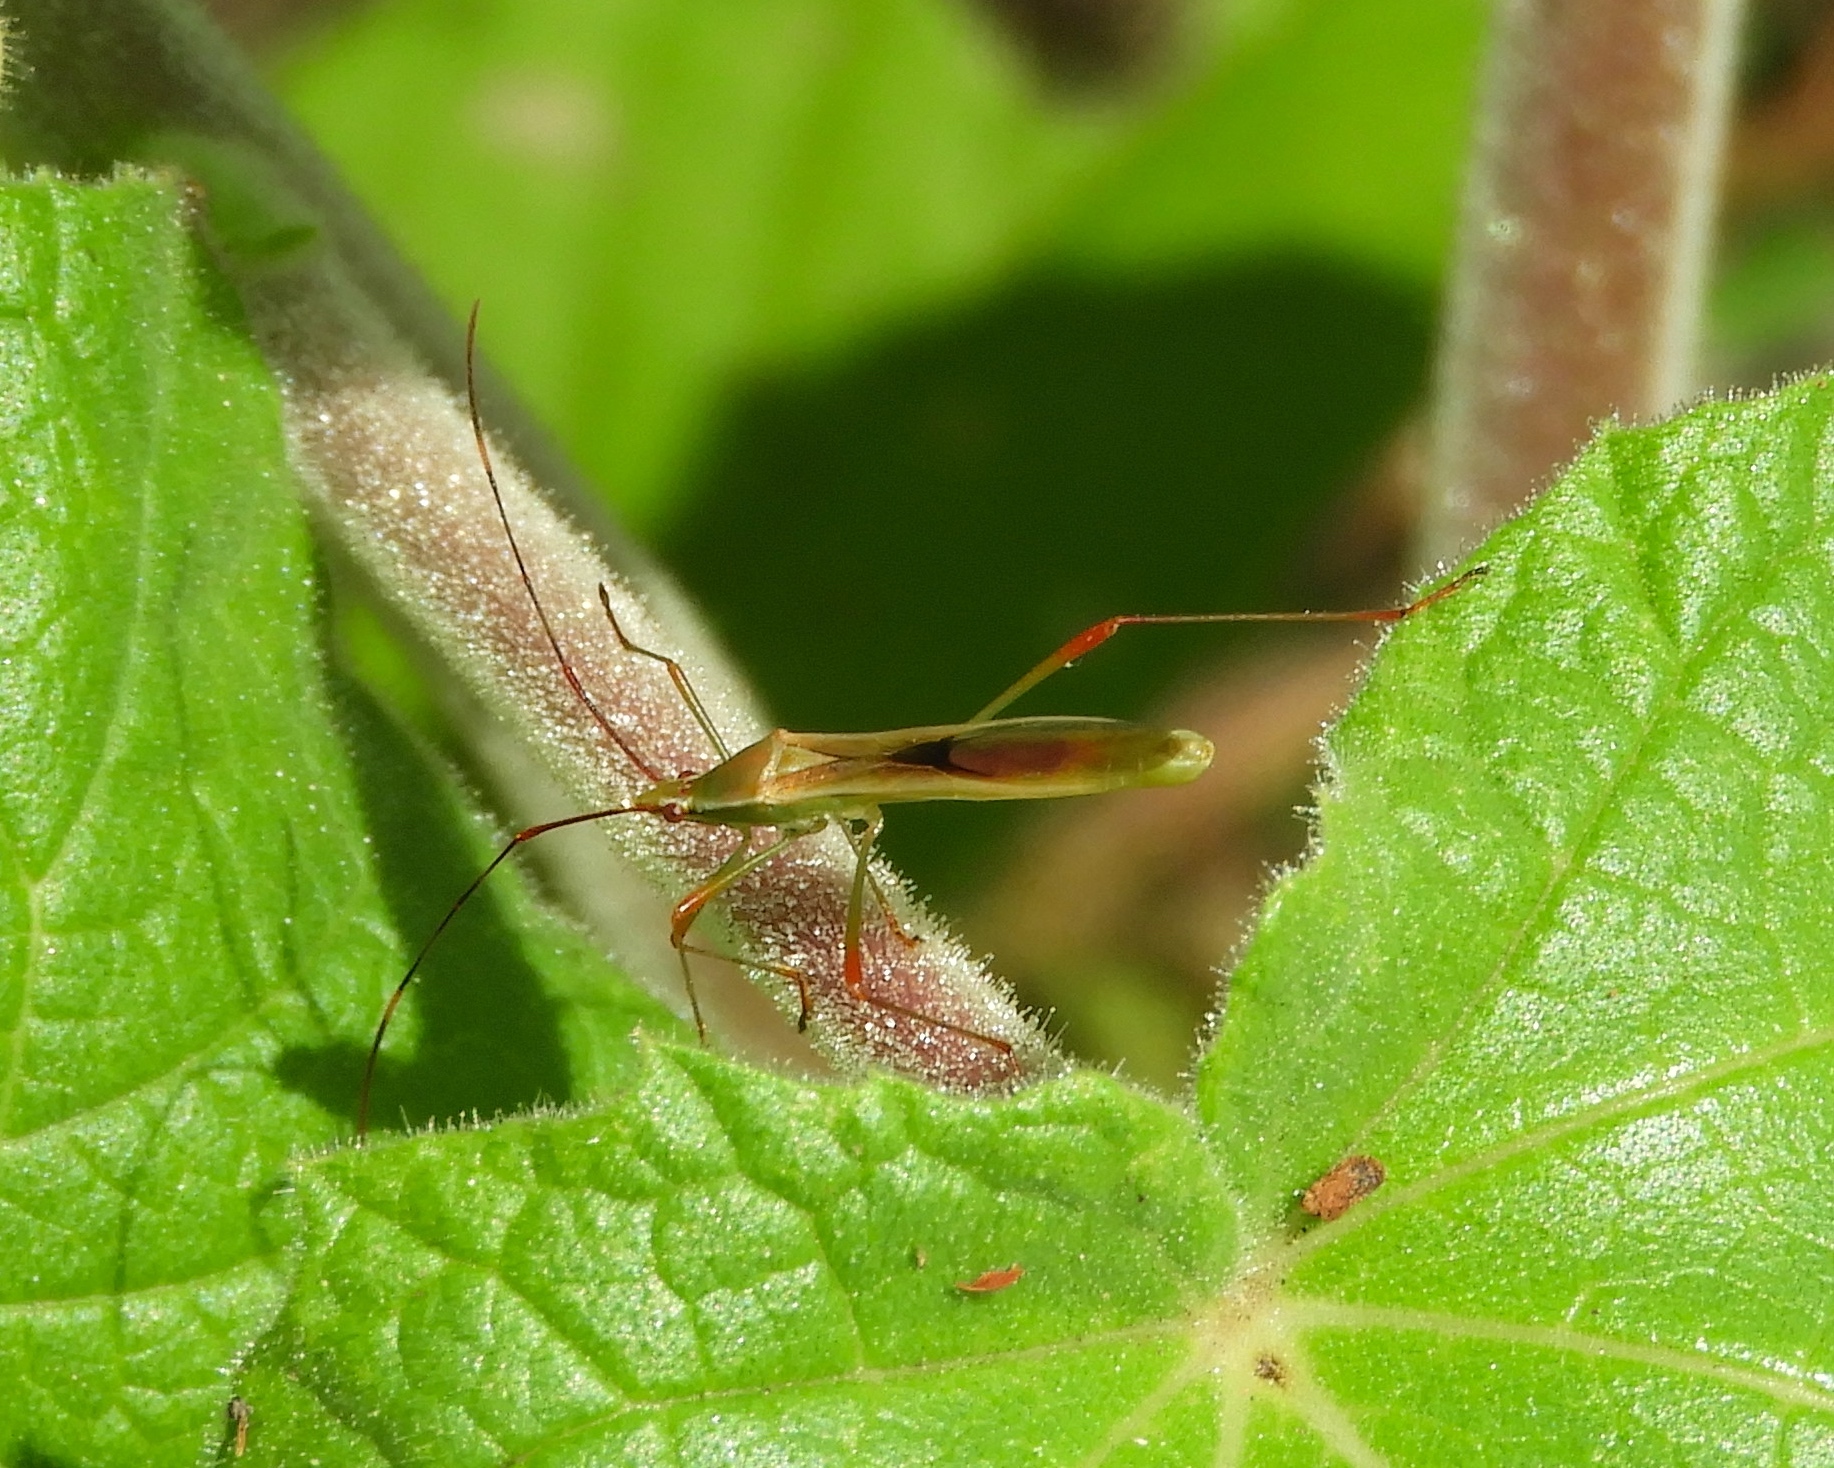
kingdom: Animalia
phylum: Arthropoda
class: Insecta
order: Hemiptera
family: Alydidae
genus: Stenocoris
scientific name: Stenocoris
